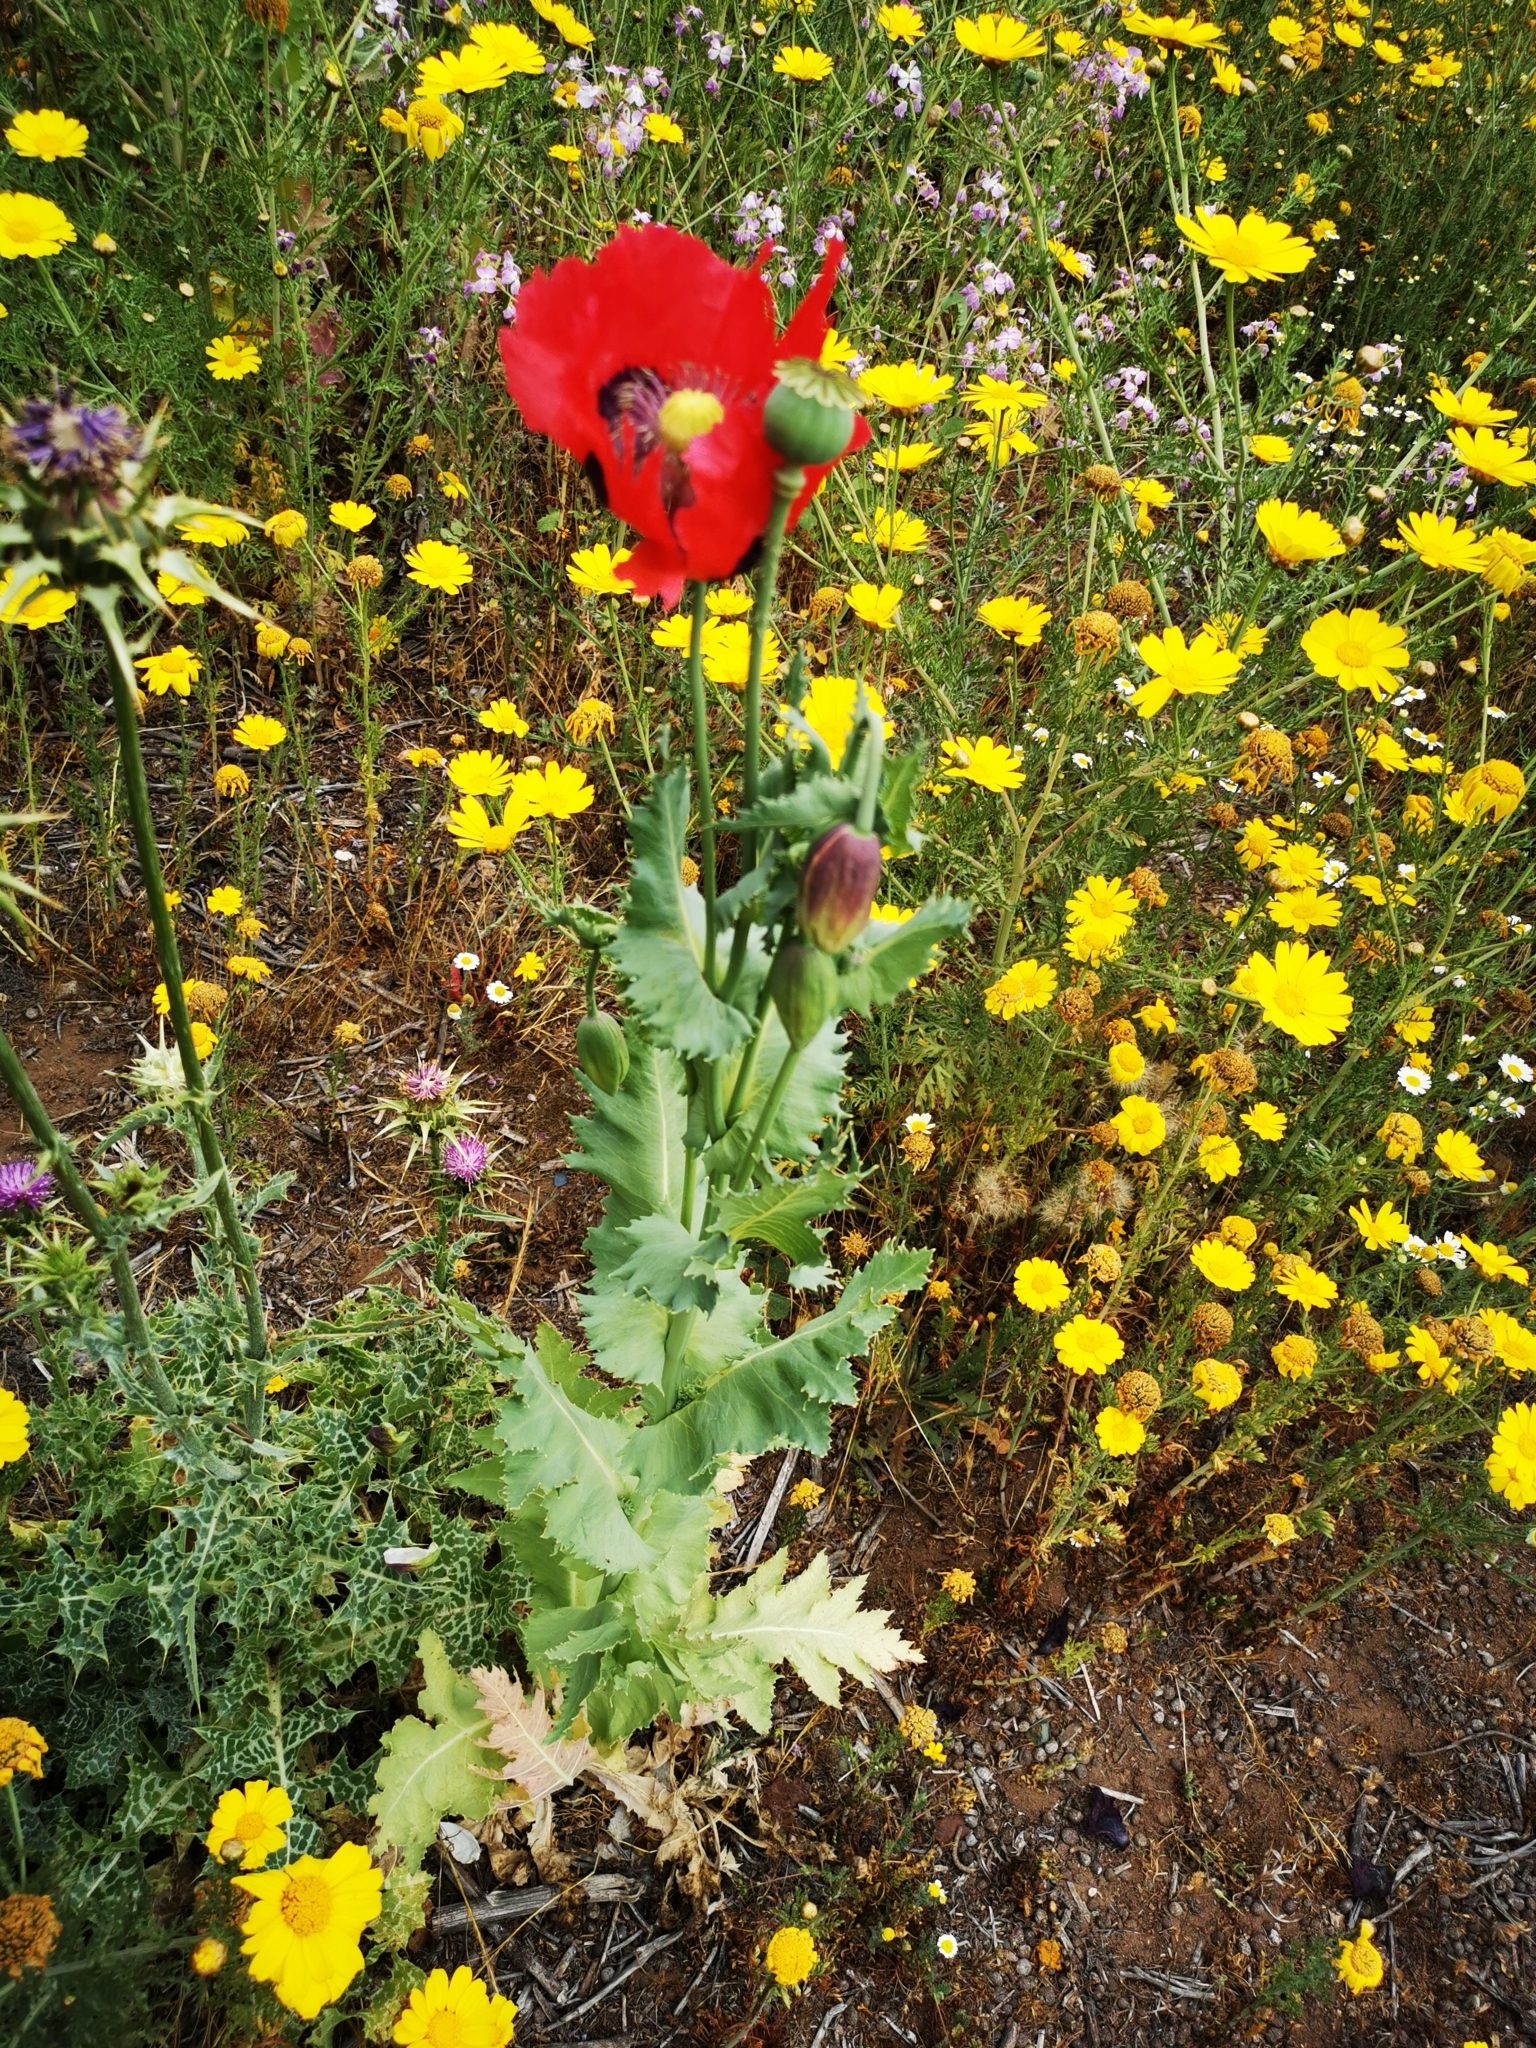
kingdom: Plantae
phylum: Tracheophyta
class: Magnoliopsida
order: Ranunculales
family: Papaveraceae
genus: Papaver
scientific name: Papaver somniferum
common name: Opium poppy
